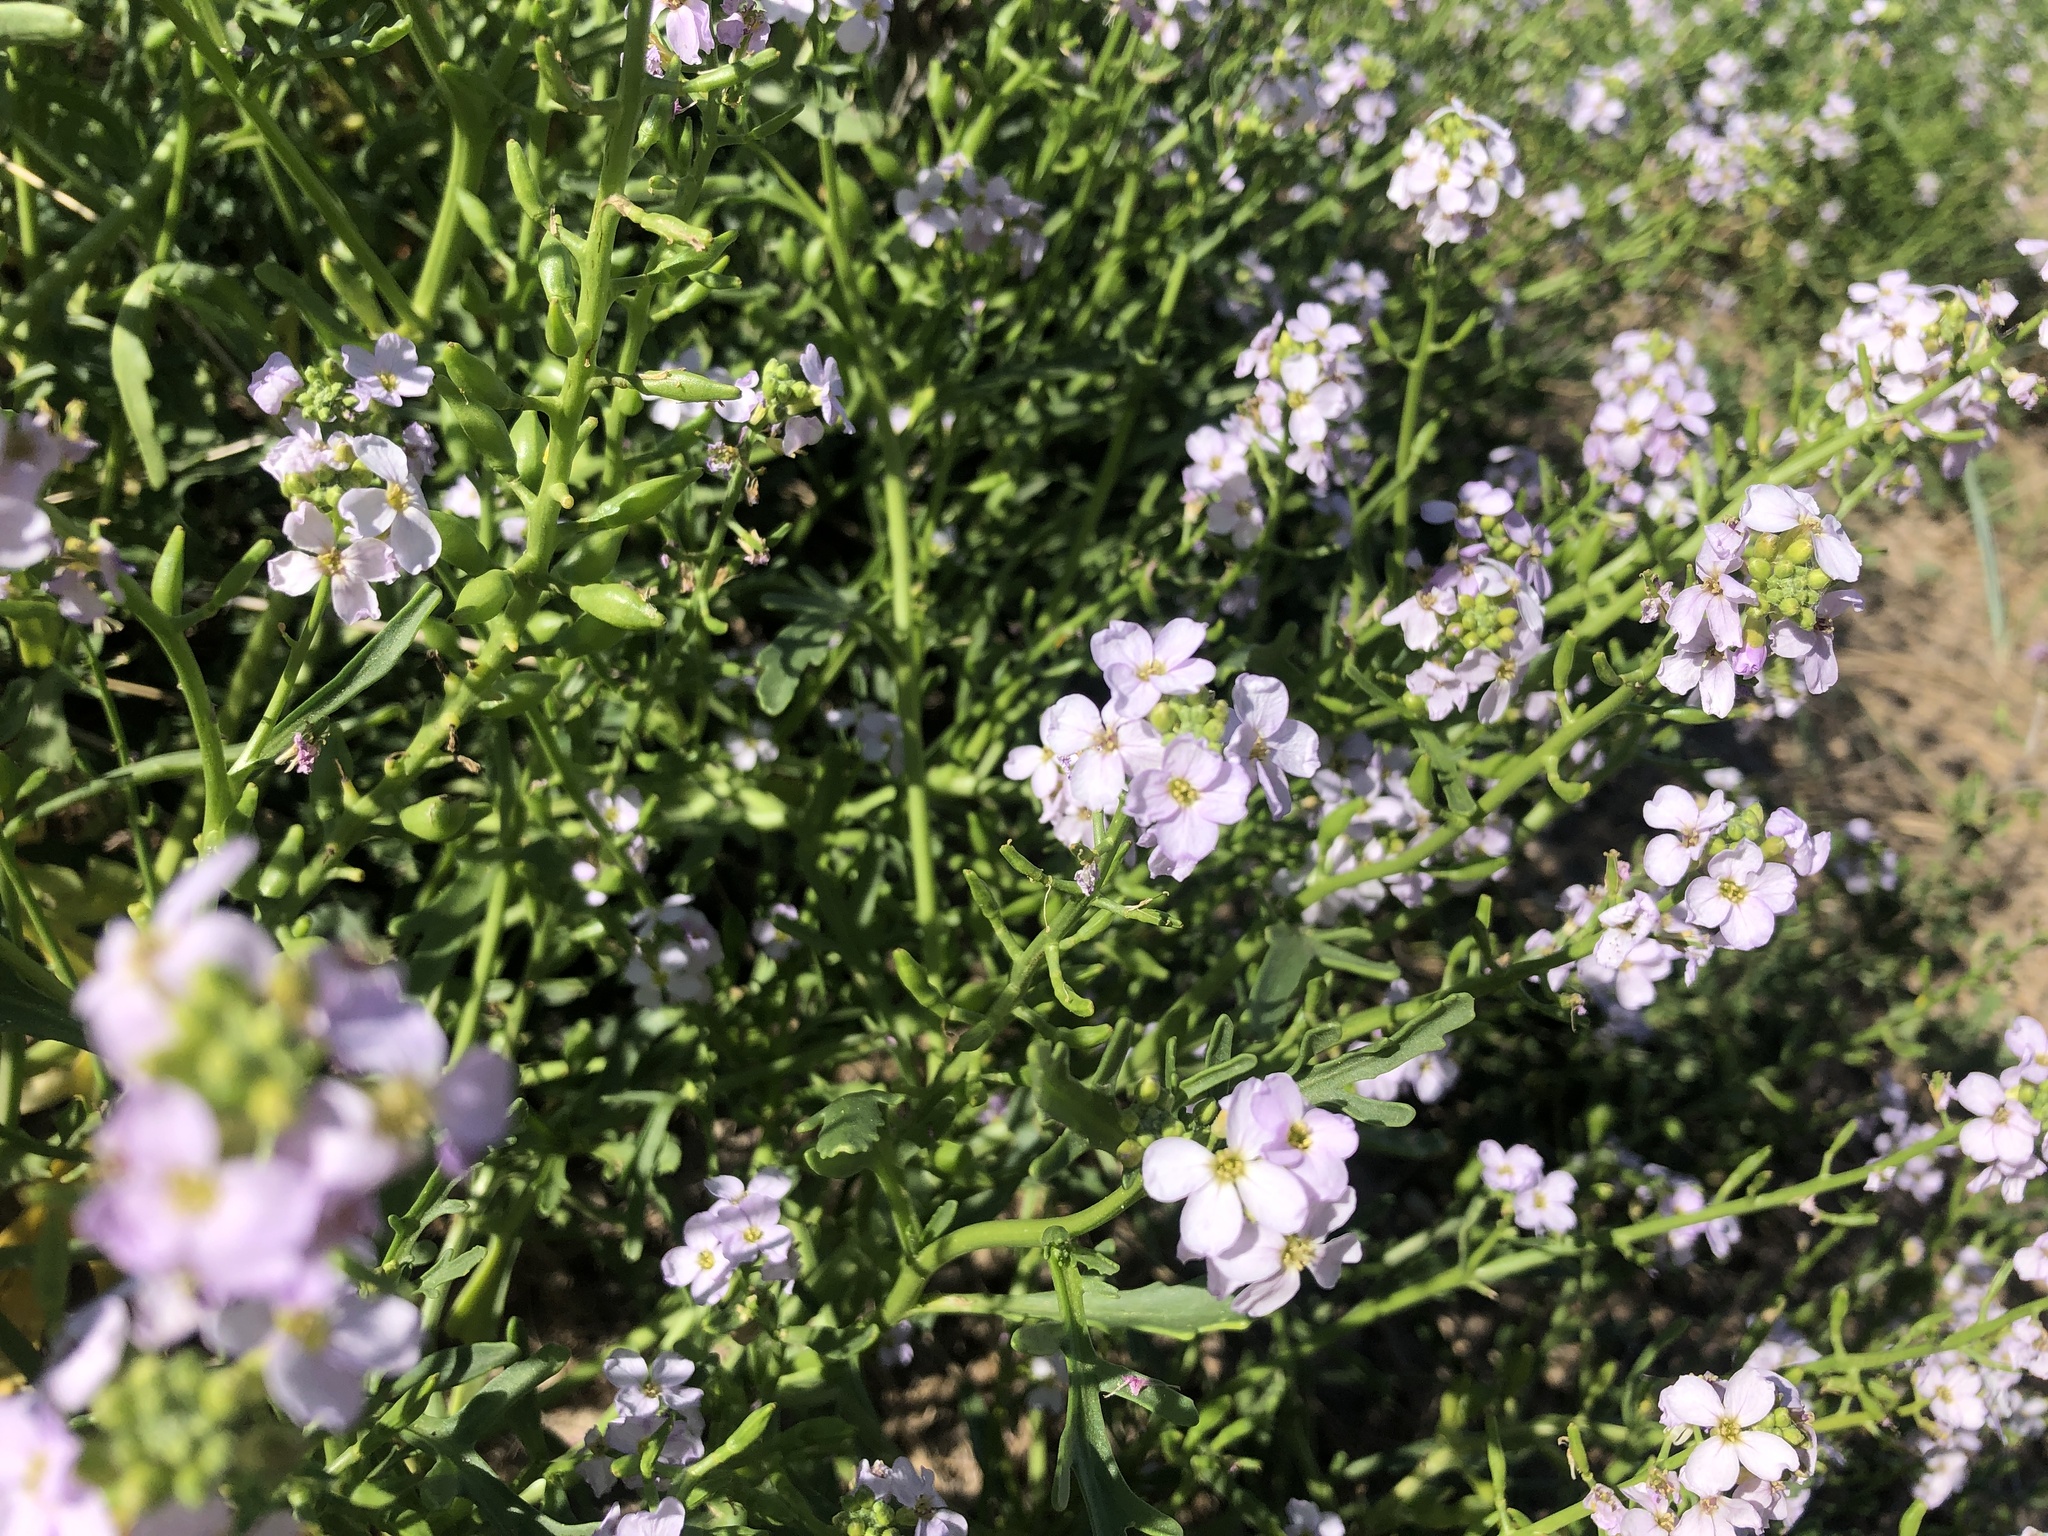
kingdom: Plantae
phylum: Tracheophyta
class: Magnoliopsida
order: Brassicales
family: Brassicaceae
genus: Cakile
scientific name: Cakile maritima
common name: Sea rocket
